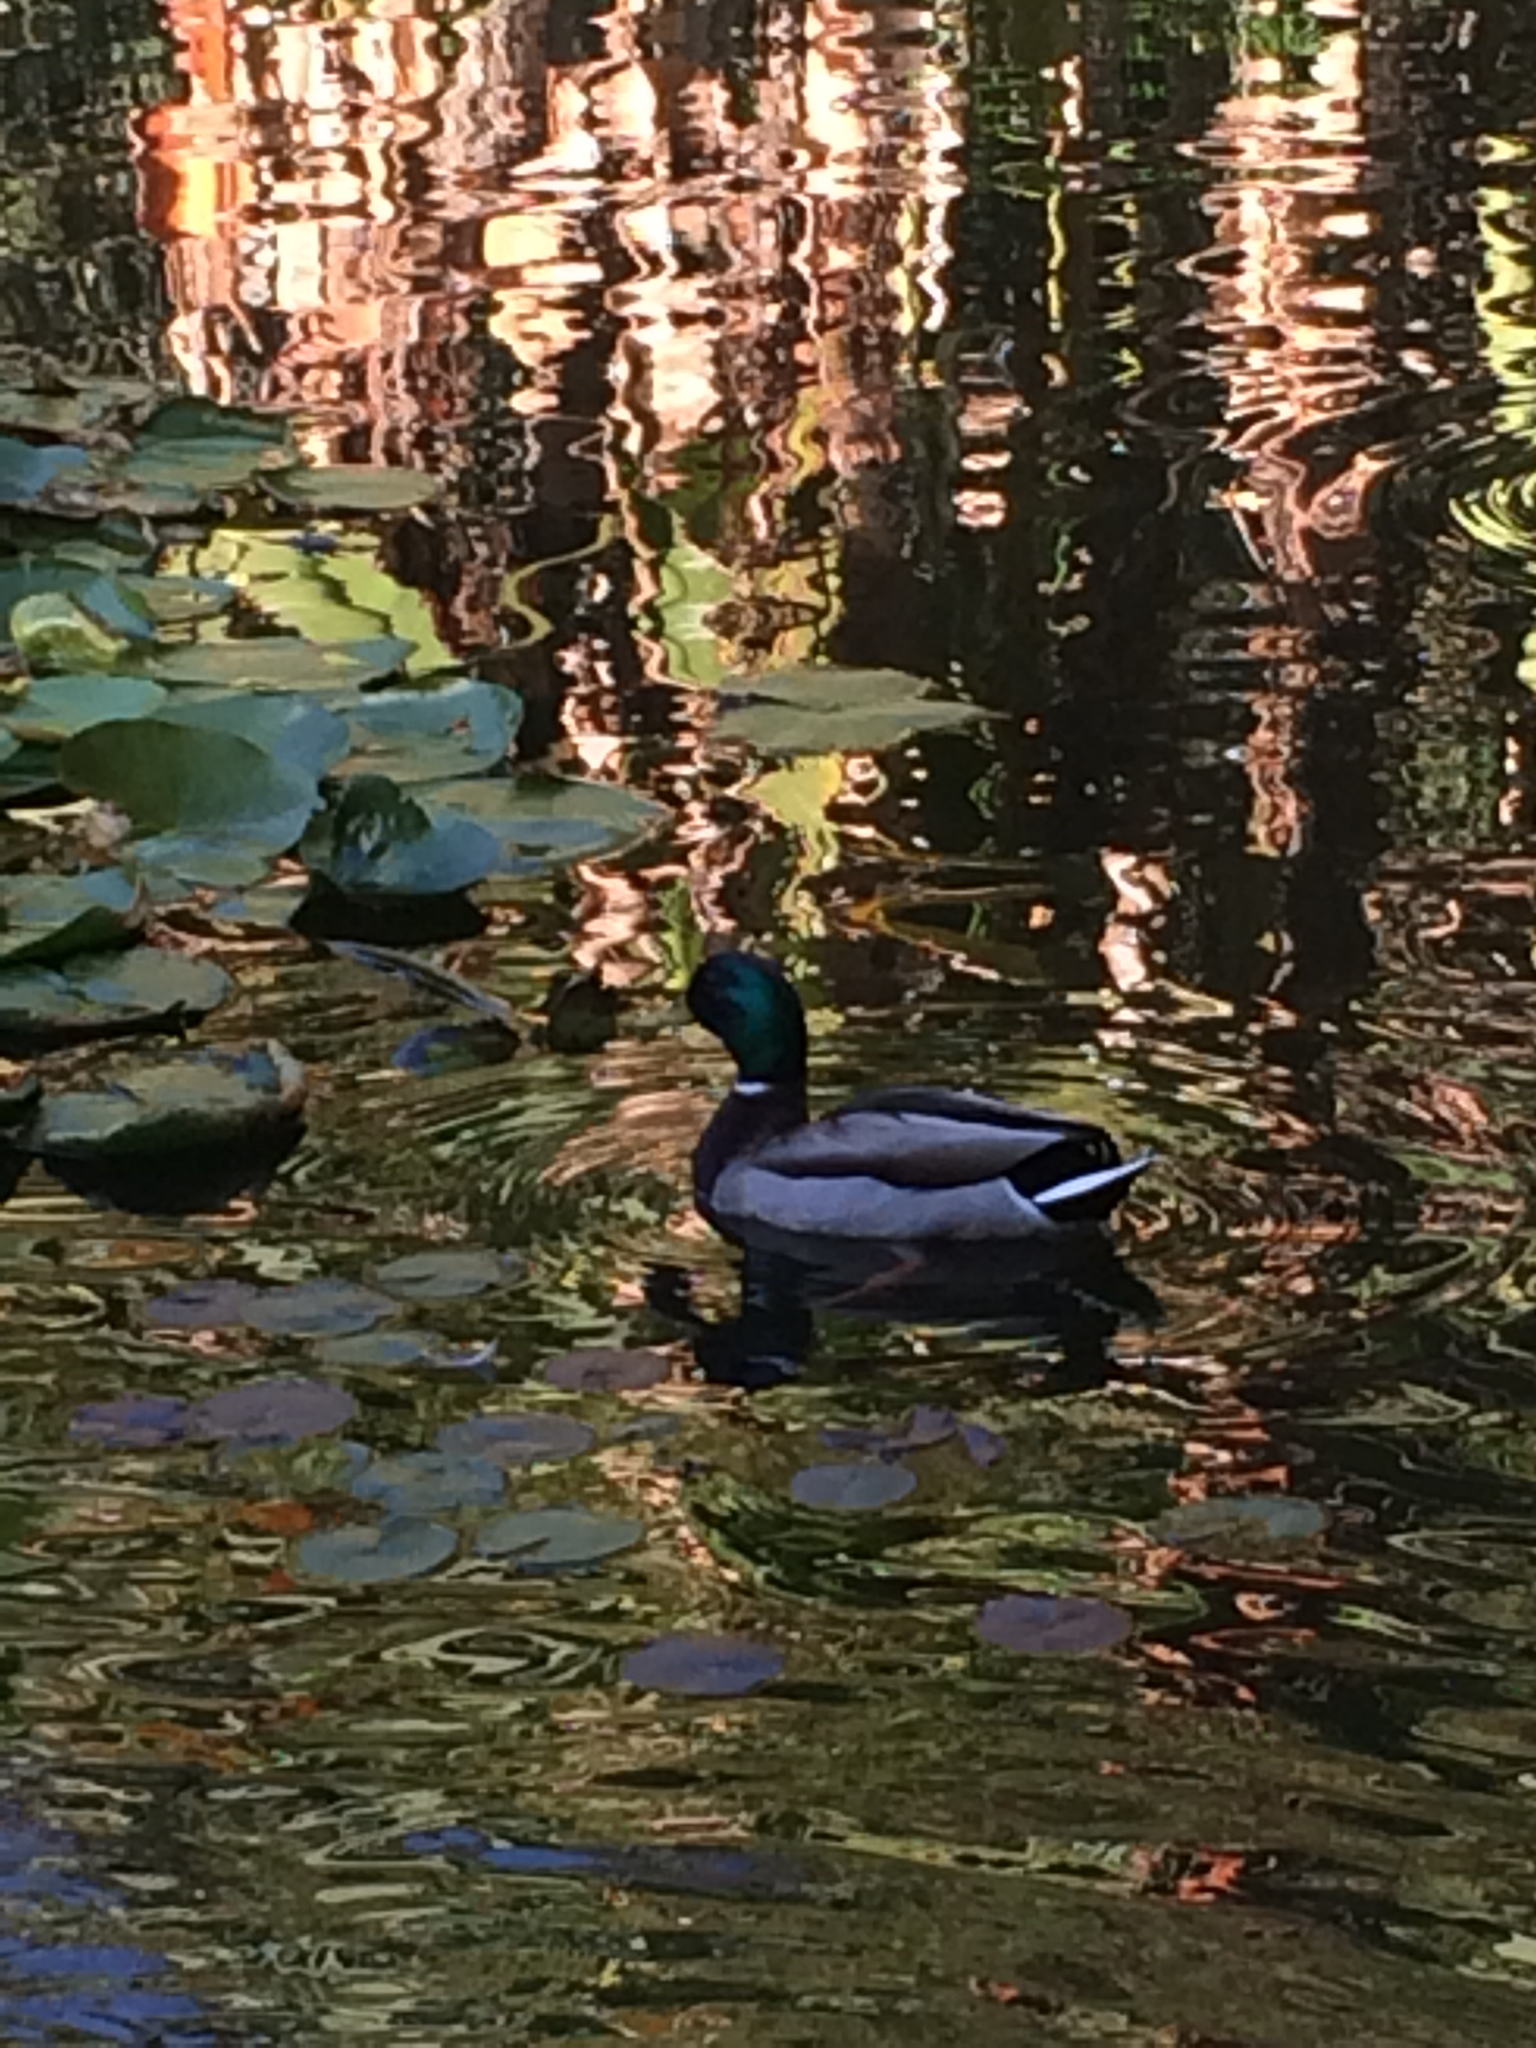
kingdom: Animalia
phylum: Chordata
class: Aves
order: Anseriformes
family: Anatidae
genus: Anas
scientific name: Anas platyrhynchos
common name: Mallard
